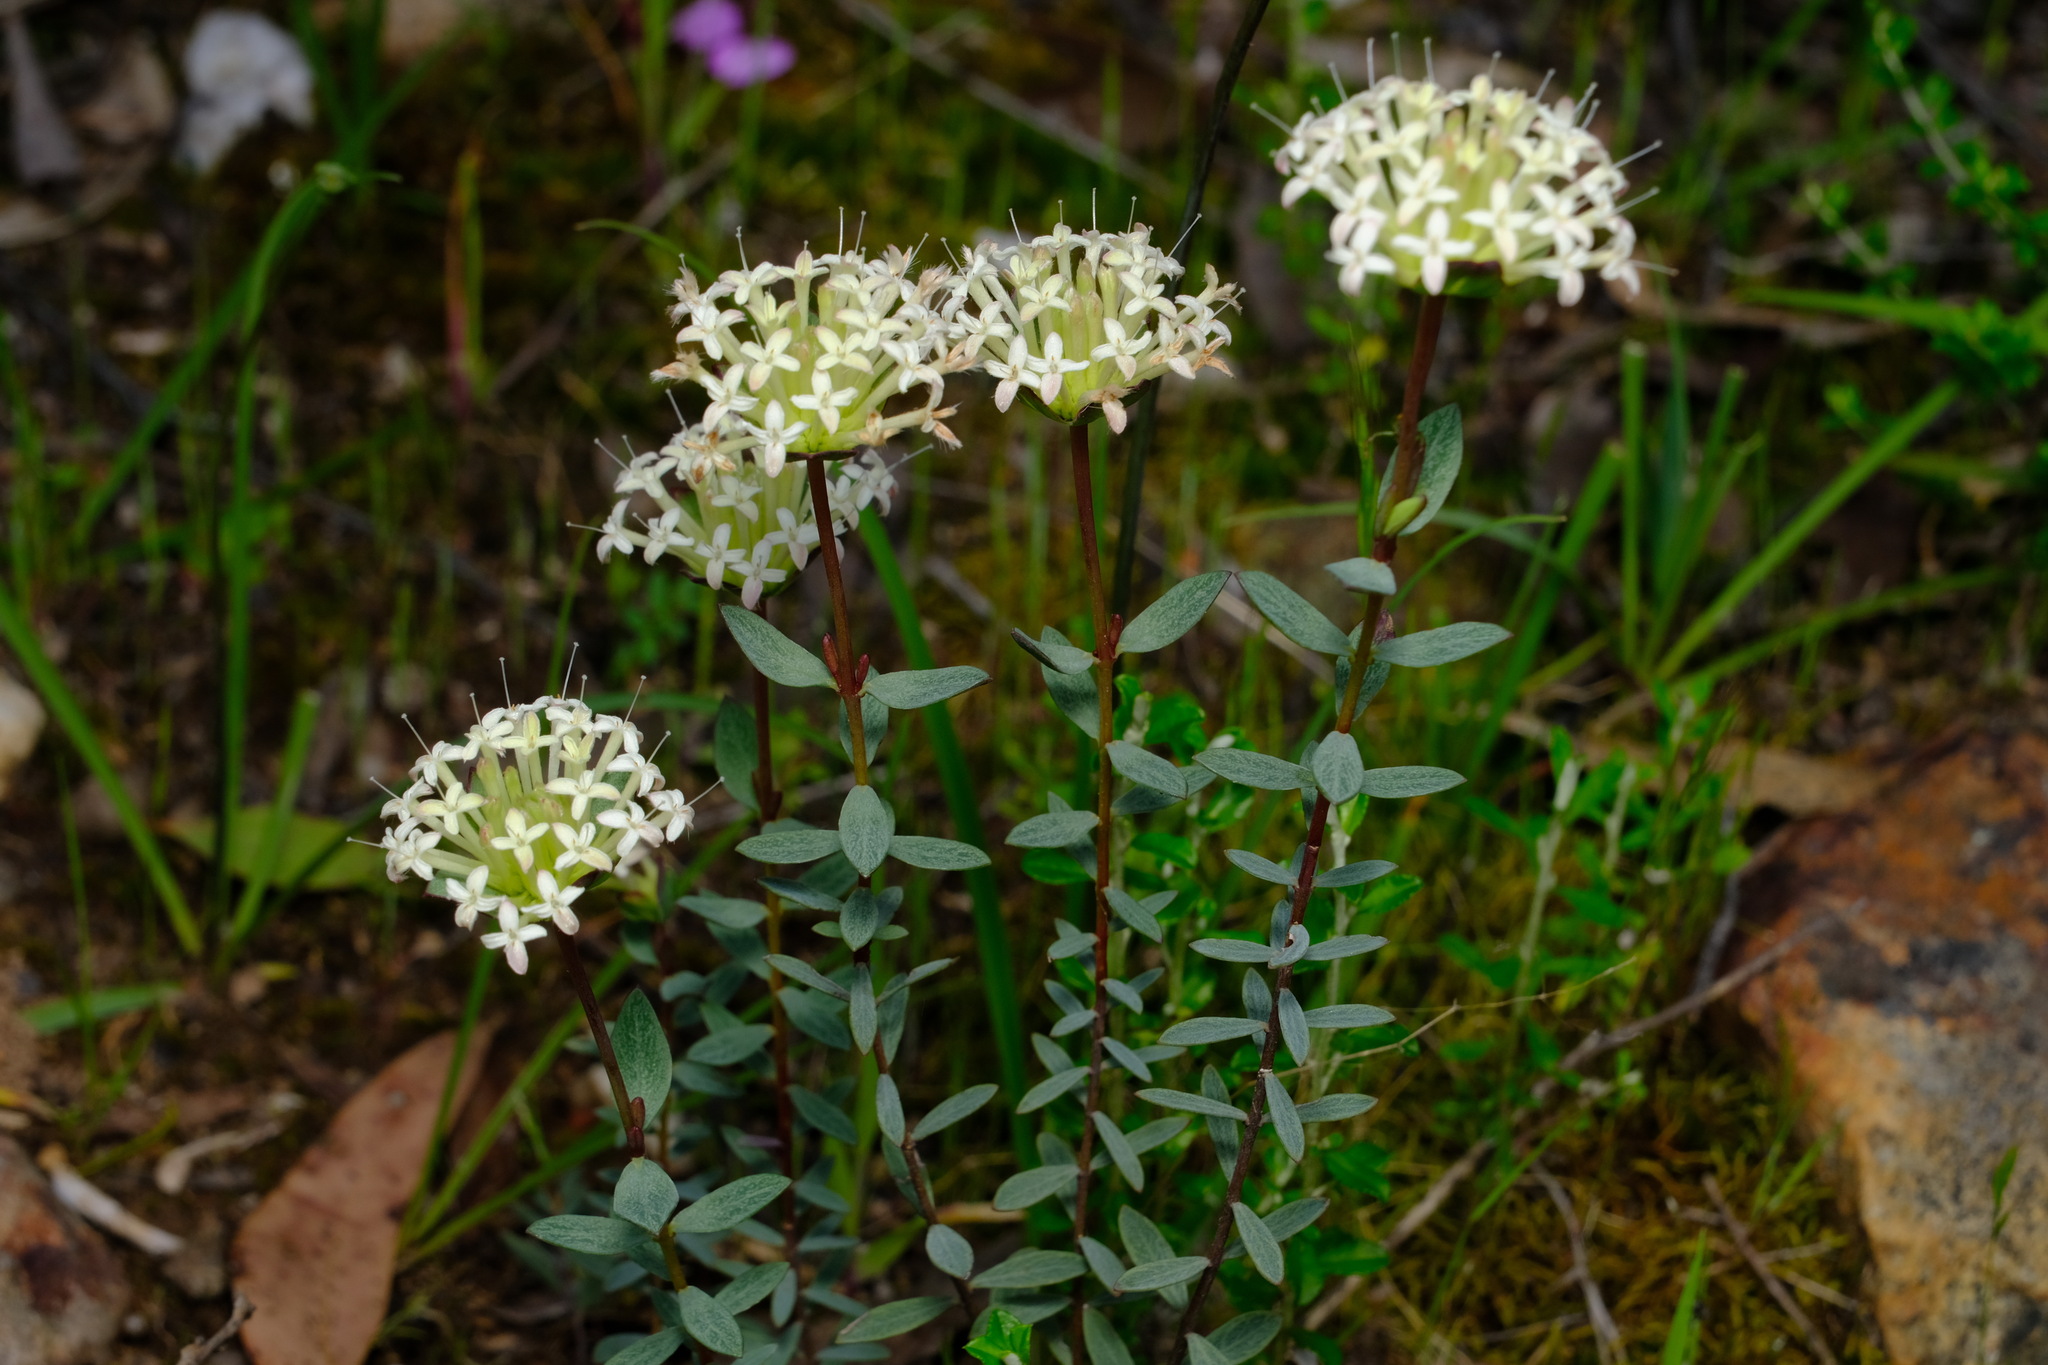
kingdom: Plantae
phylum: Tracheophyta
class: Magnoliopsida
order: Malvales
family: Thymelaeaceae
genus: Pimelea
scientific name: Pimelea linifolia
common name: Queen-of-the-bush
